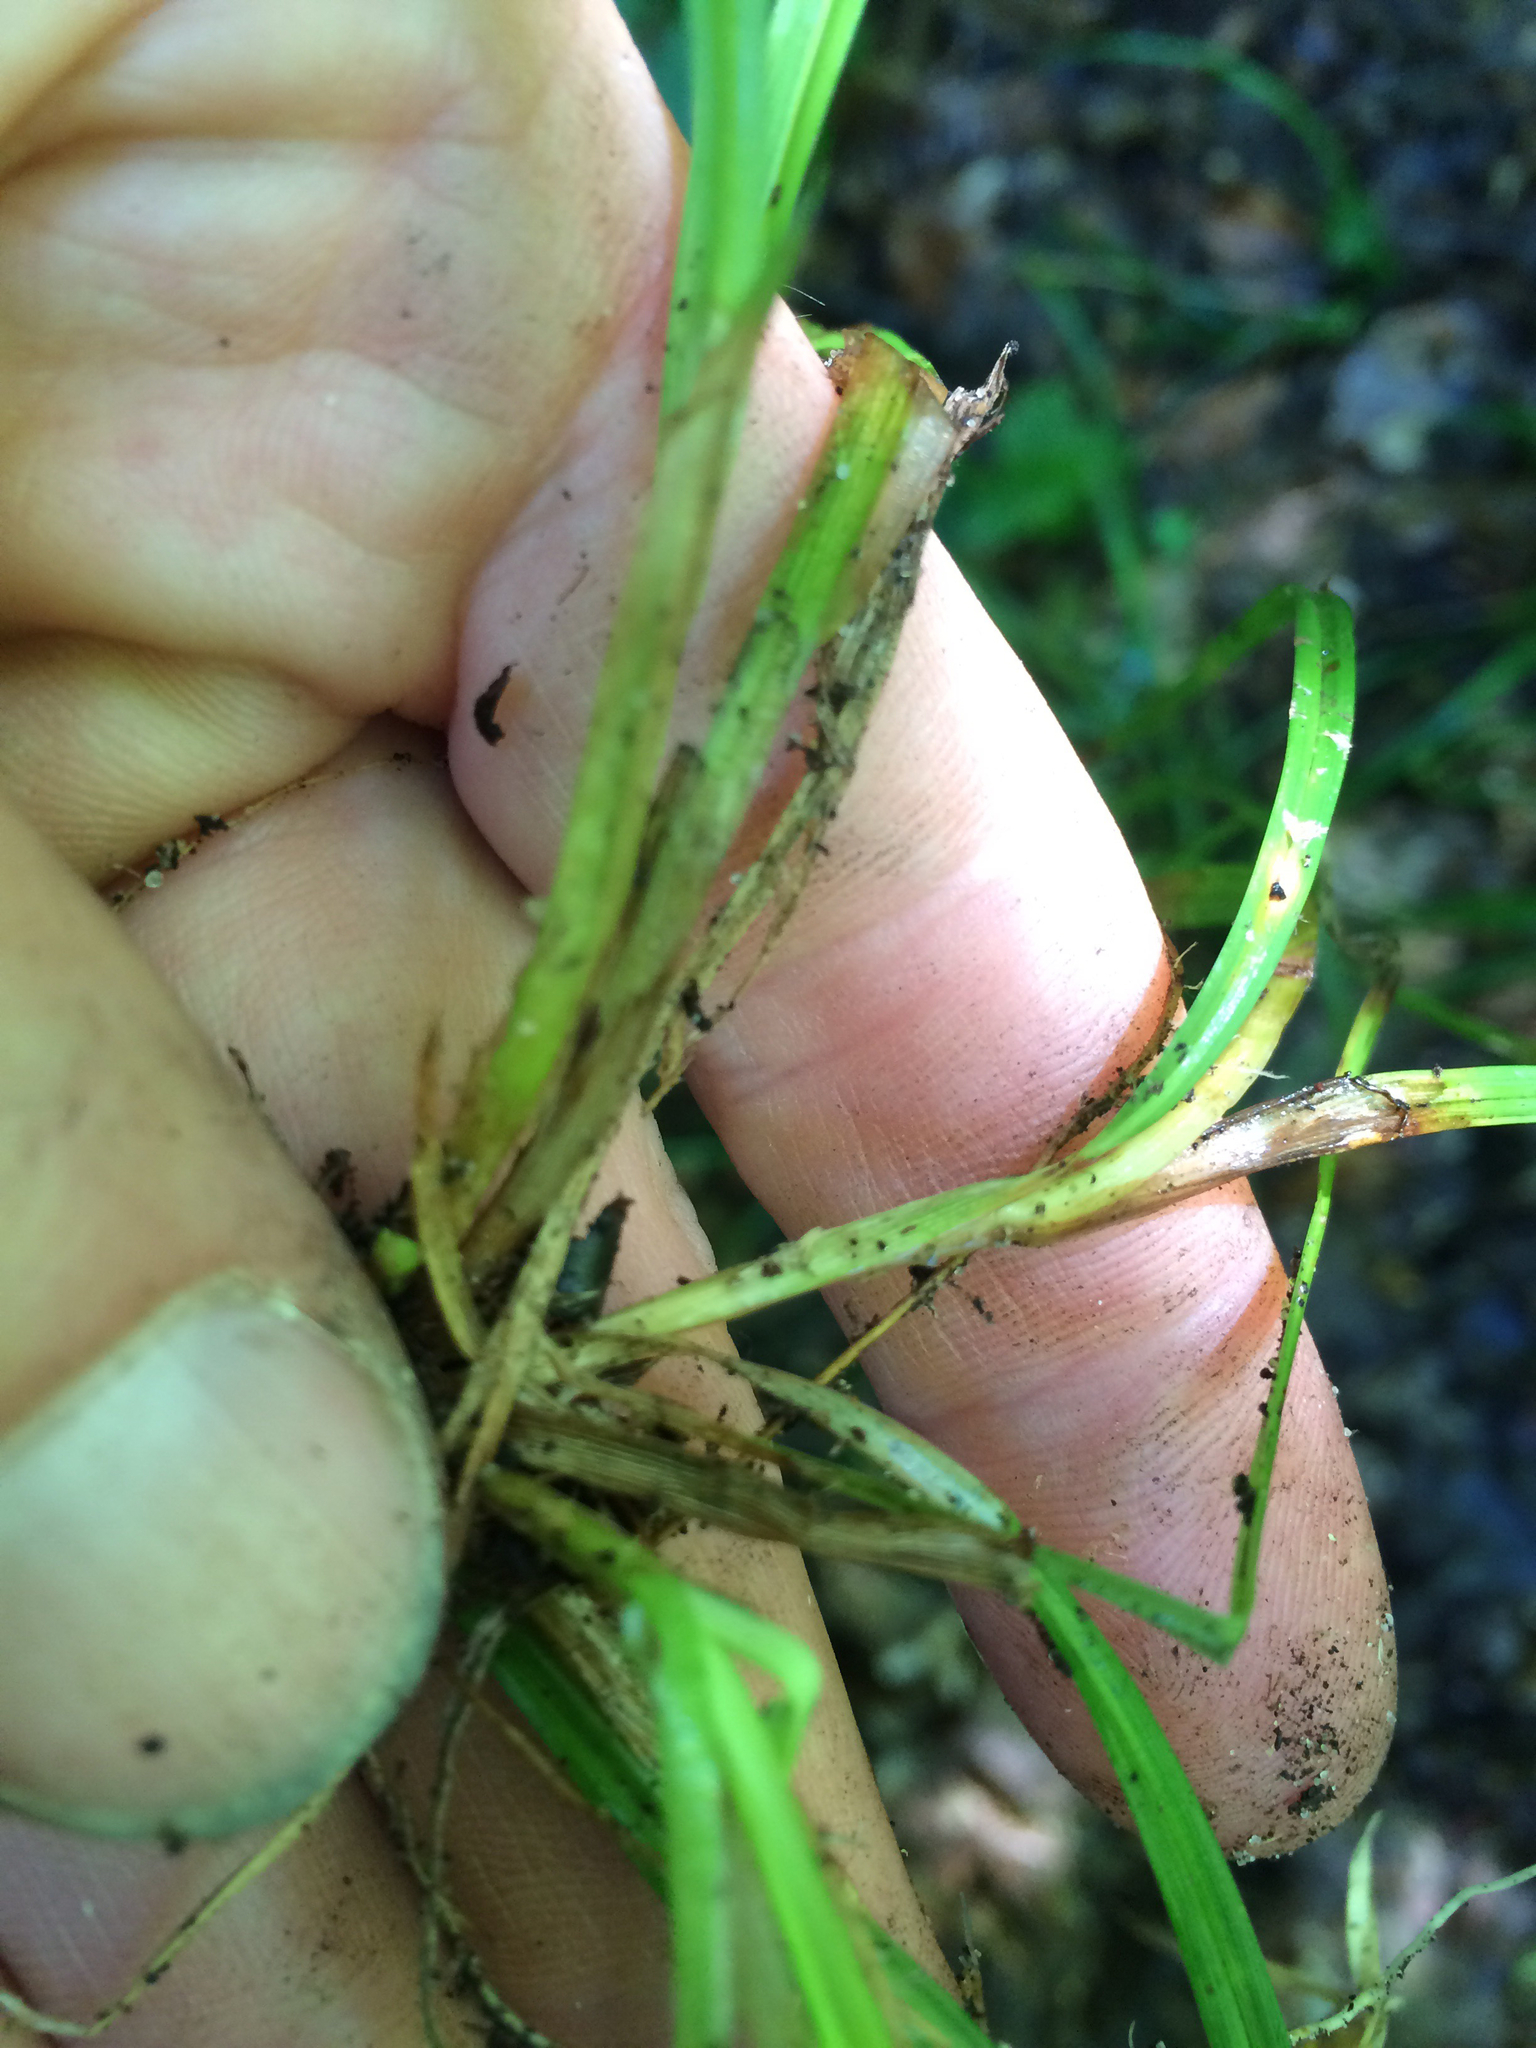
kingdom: Plantae
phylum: Tracheophyta
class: Liliopsida
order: Poales
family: Cyperaceae
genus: Carex
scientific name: Carex deweyana
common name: Dewey's sedge
